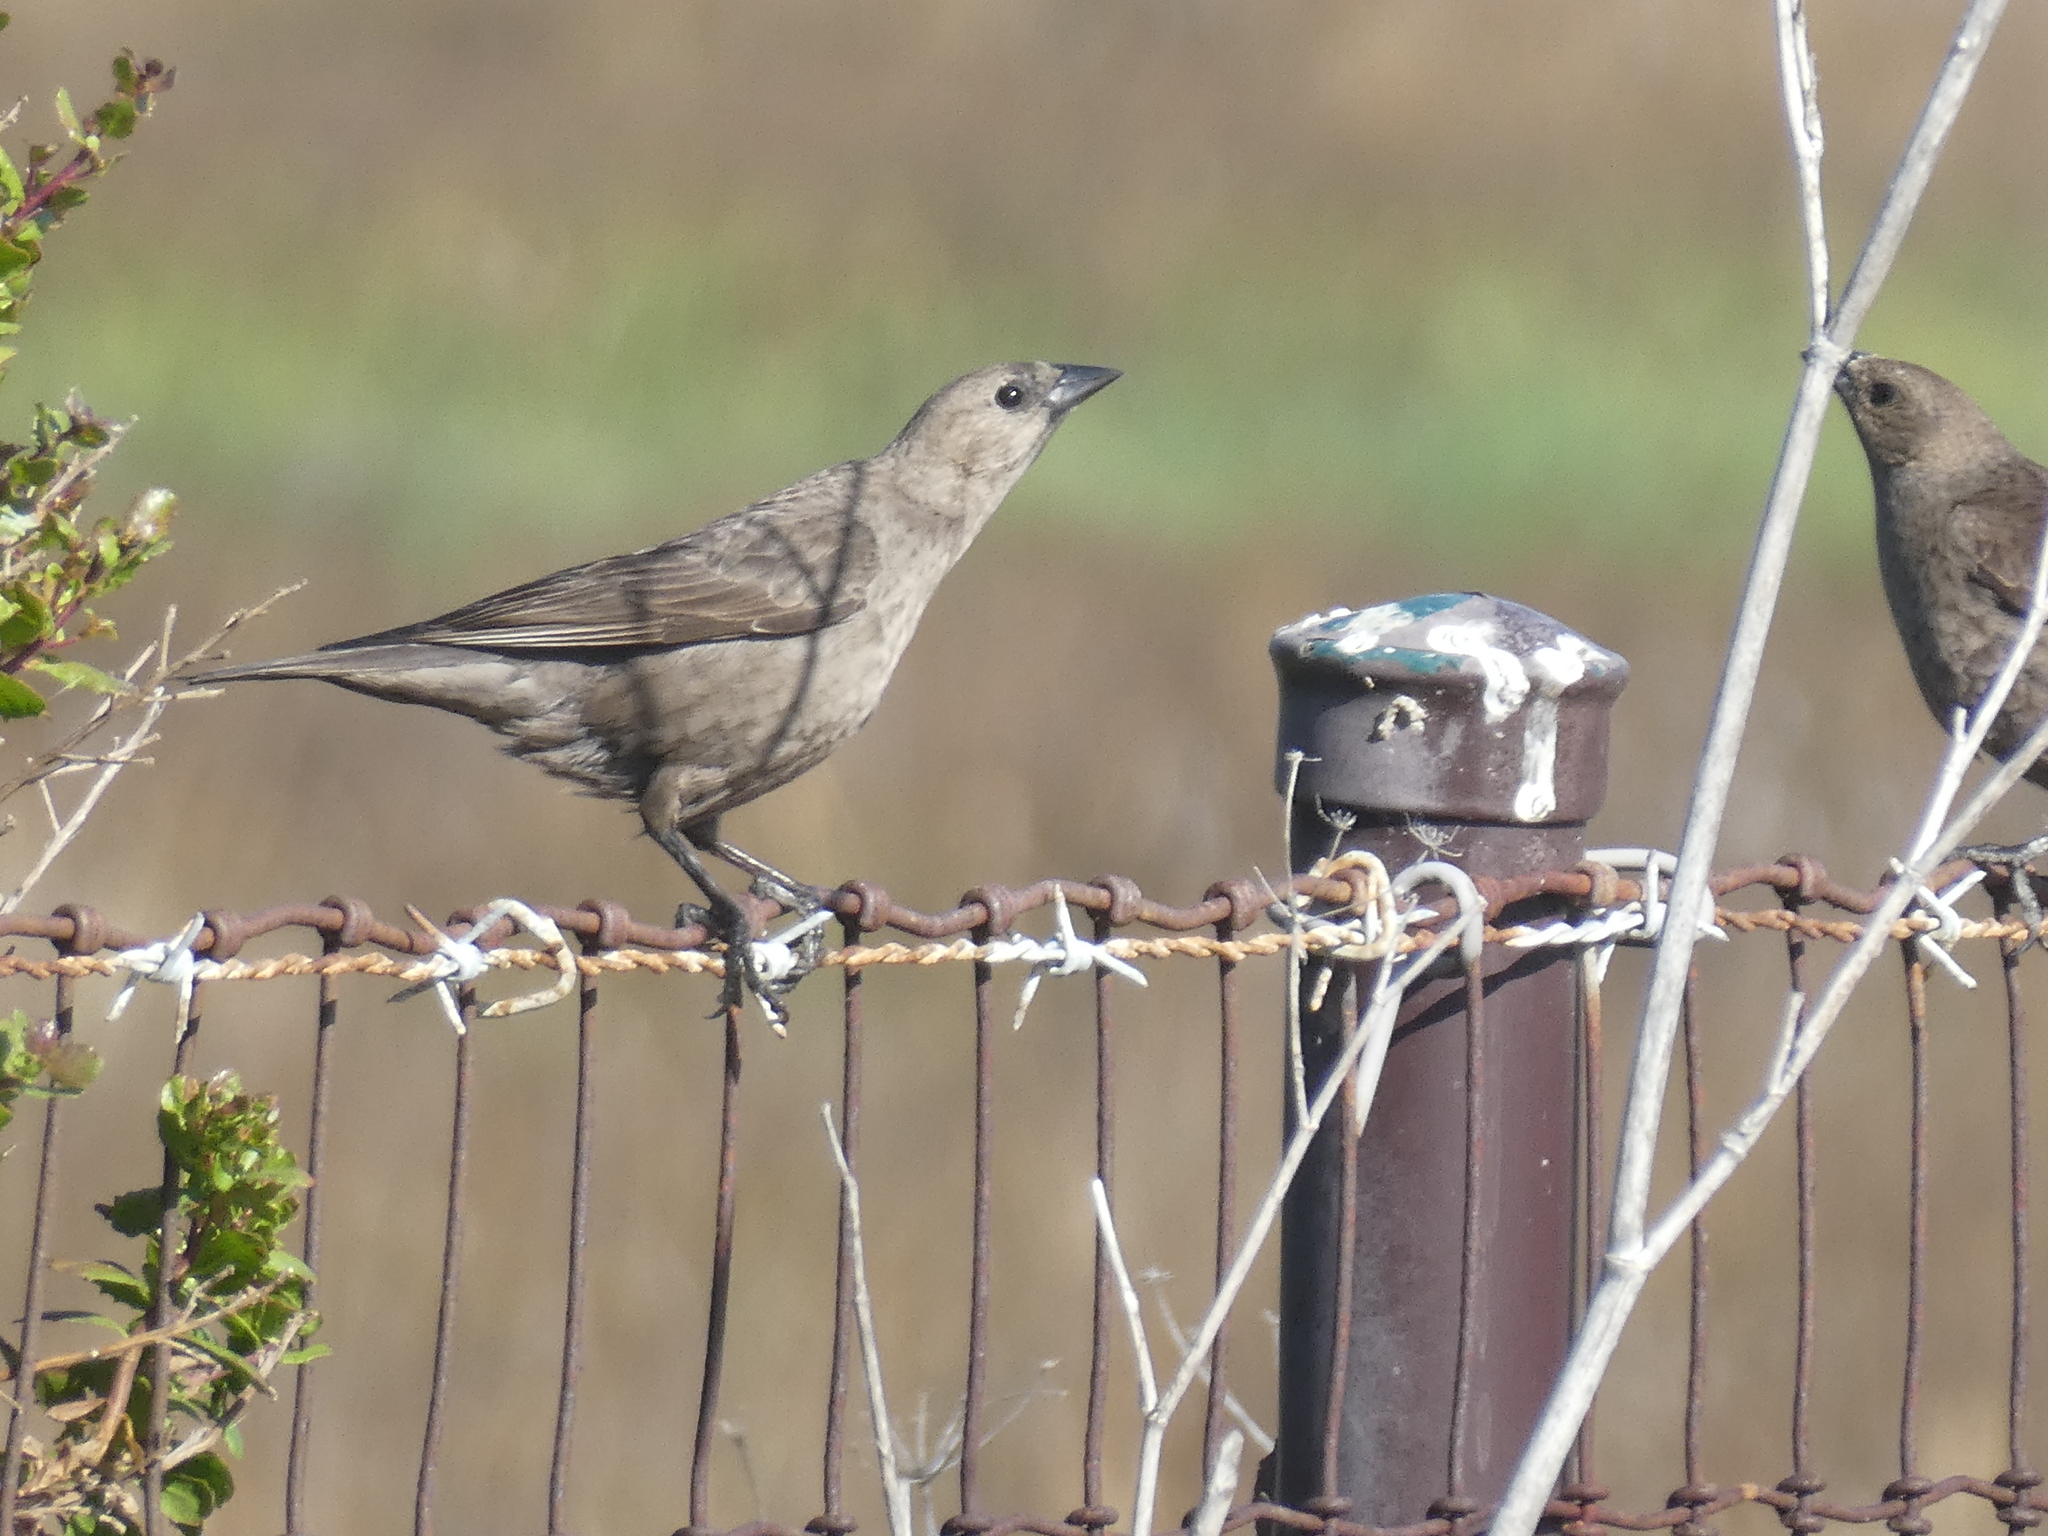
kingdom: Animalia
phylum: Chordata
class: Aves
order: Passeriformes
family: Icteridae
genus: Molothrus
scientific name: Molothrus ater
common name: Brown-headed cowbird
